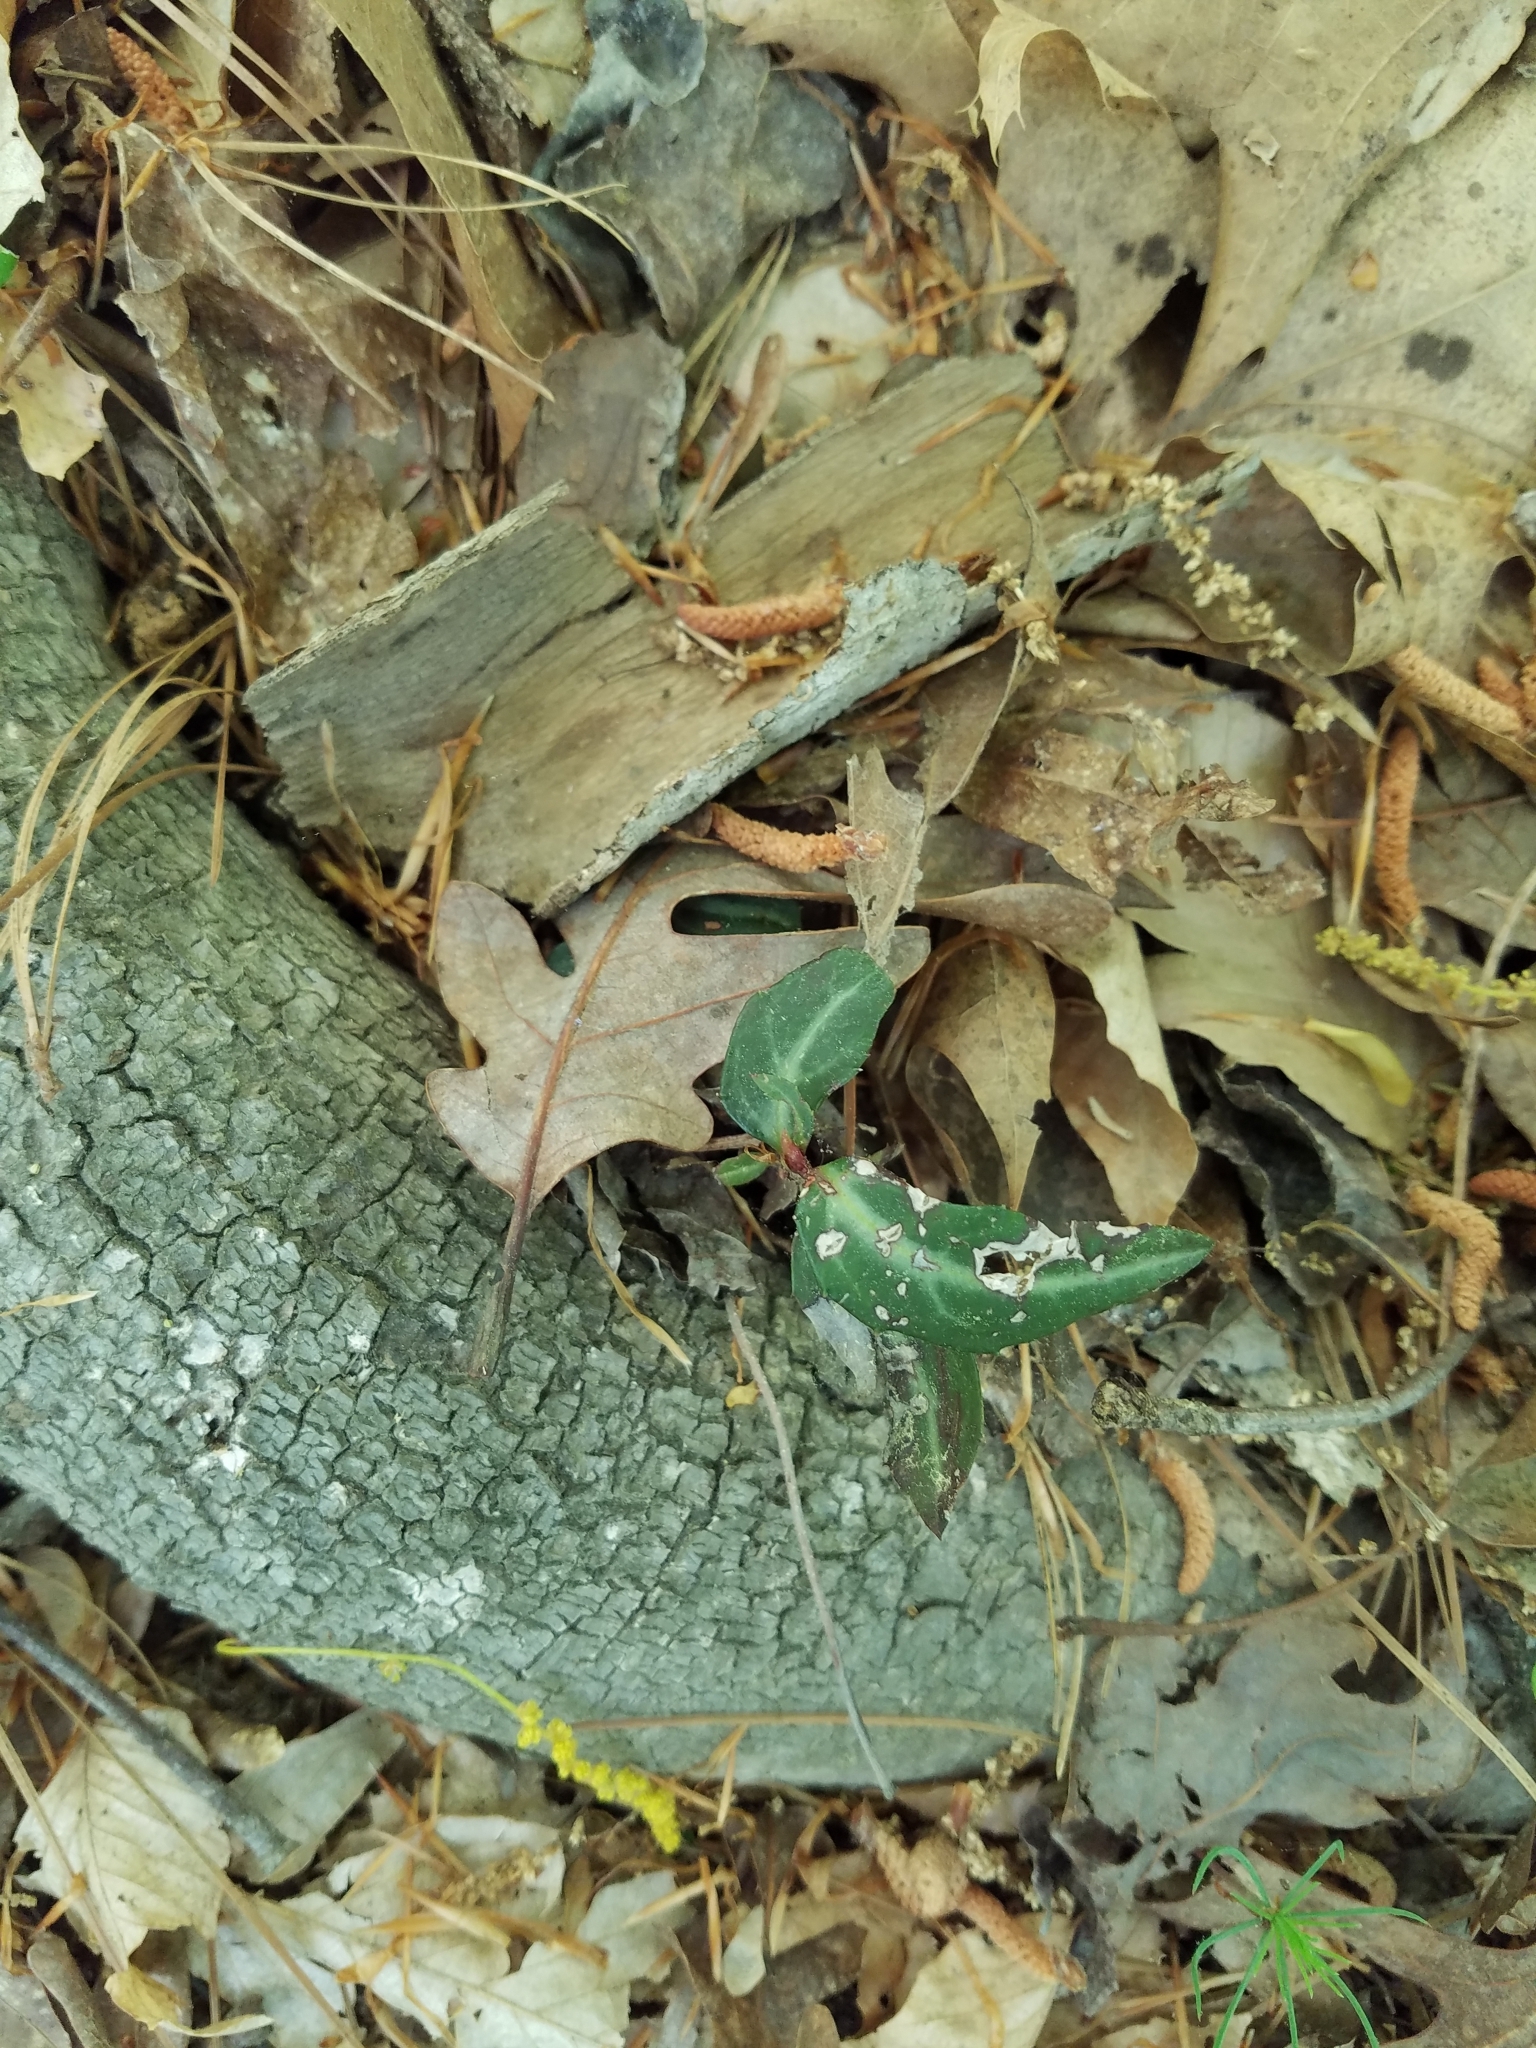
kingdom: Plantae
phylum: Tracheophyta
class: Magnoliopsida
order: Ericales
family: Ericaceae
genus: Chimaphila
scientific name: Chimaphila maculata
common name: Spotted pipsissewa
